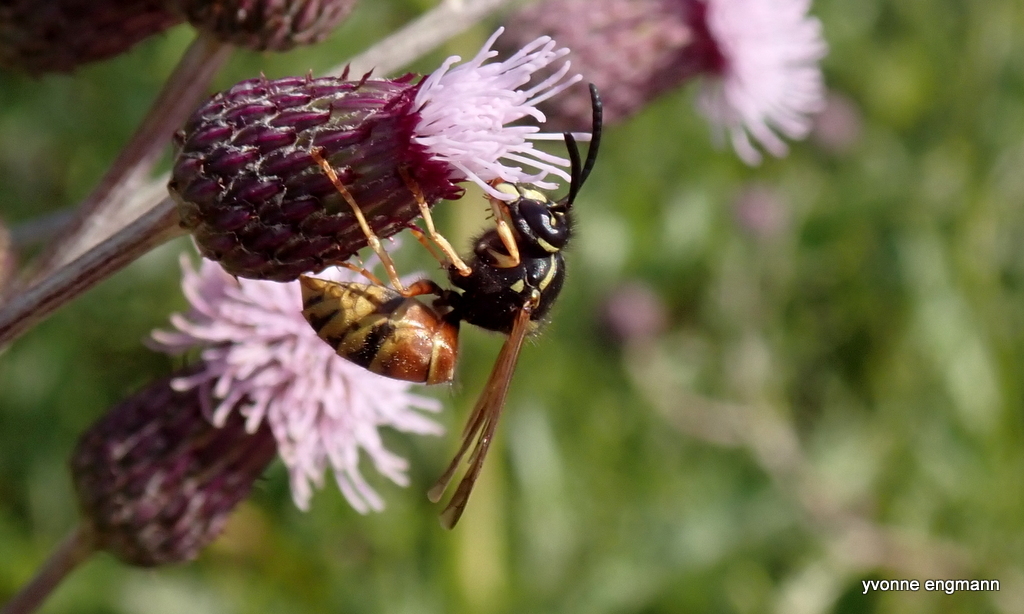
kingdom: Animalia
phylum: Arthropoda
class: Insecta
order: Hymenoptera
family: Vespidae
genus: Vespula
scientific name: Vespula rufa
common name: Red wasp
